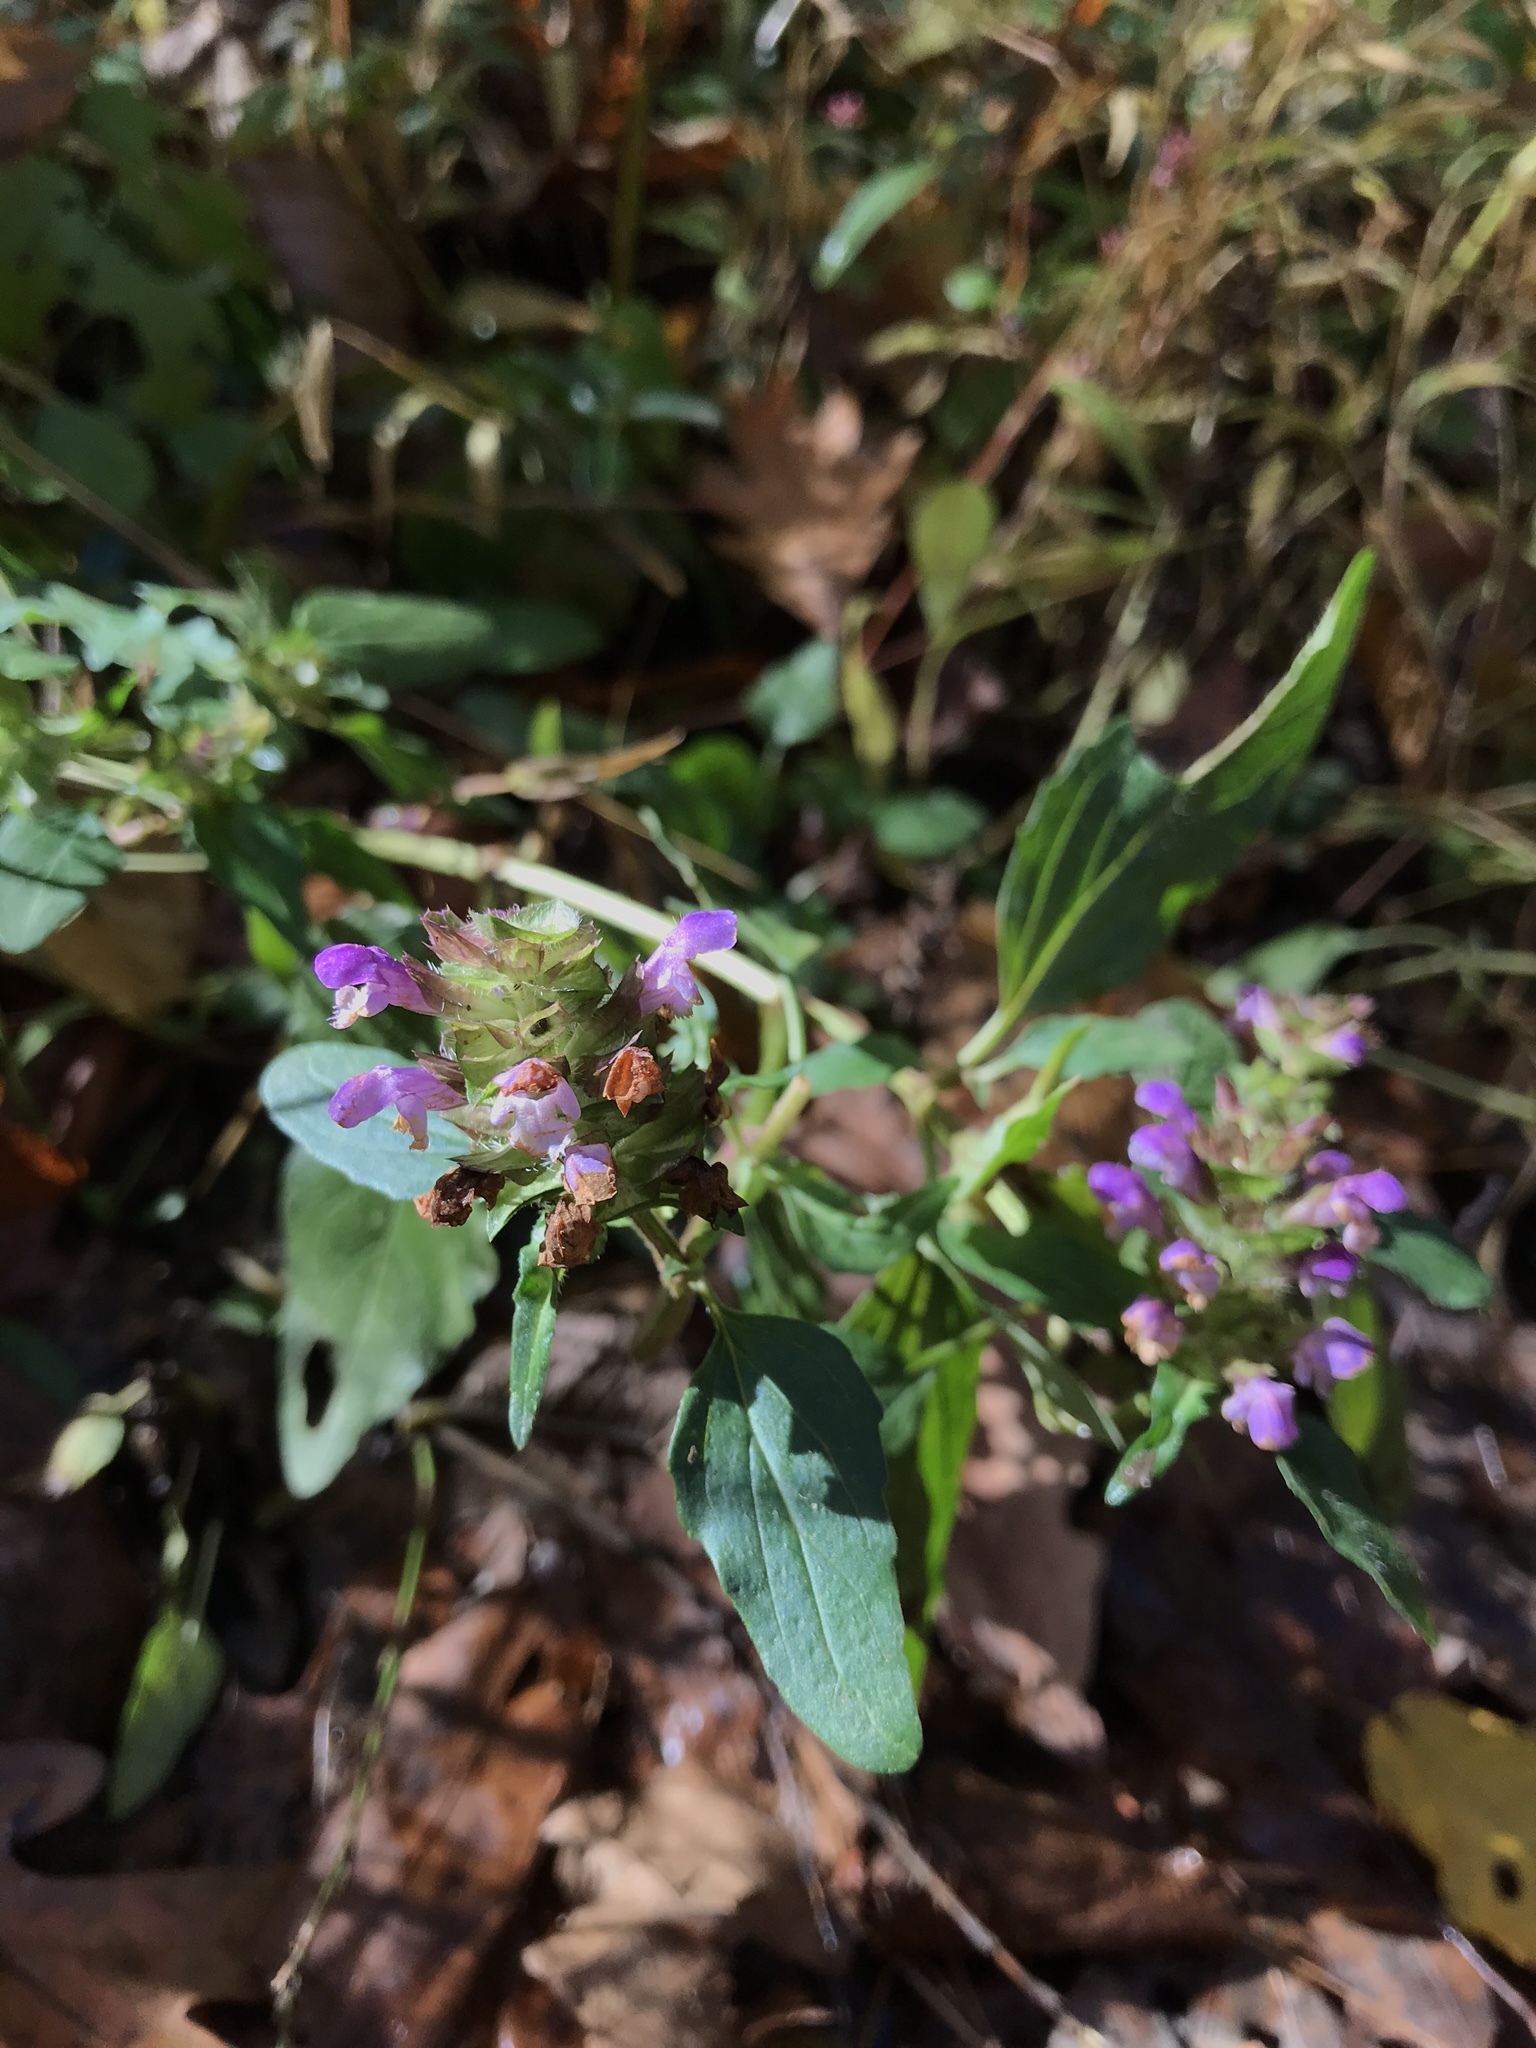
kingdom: Plantae
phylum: Tracheophyta
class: Magnoliopsida
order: Lamiales
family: Lamiaceae
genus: Prunella
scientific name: Prunella vulgaris
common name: Heal-all
